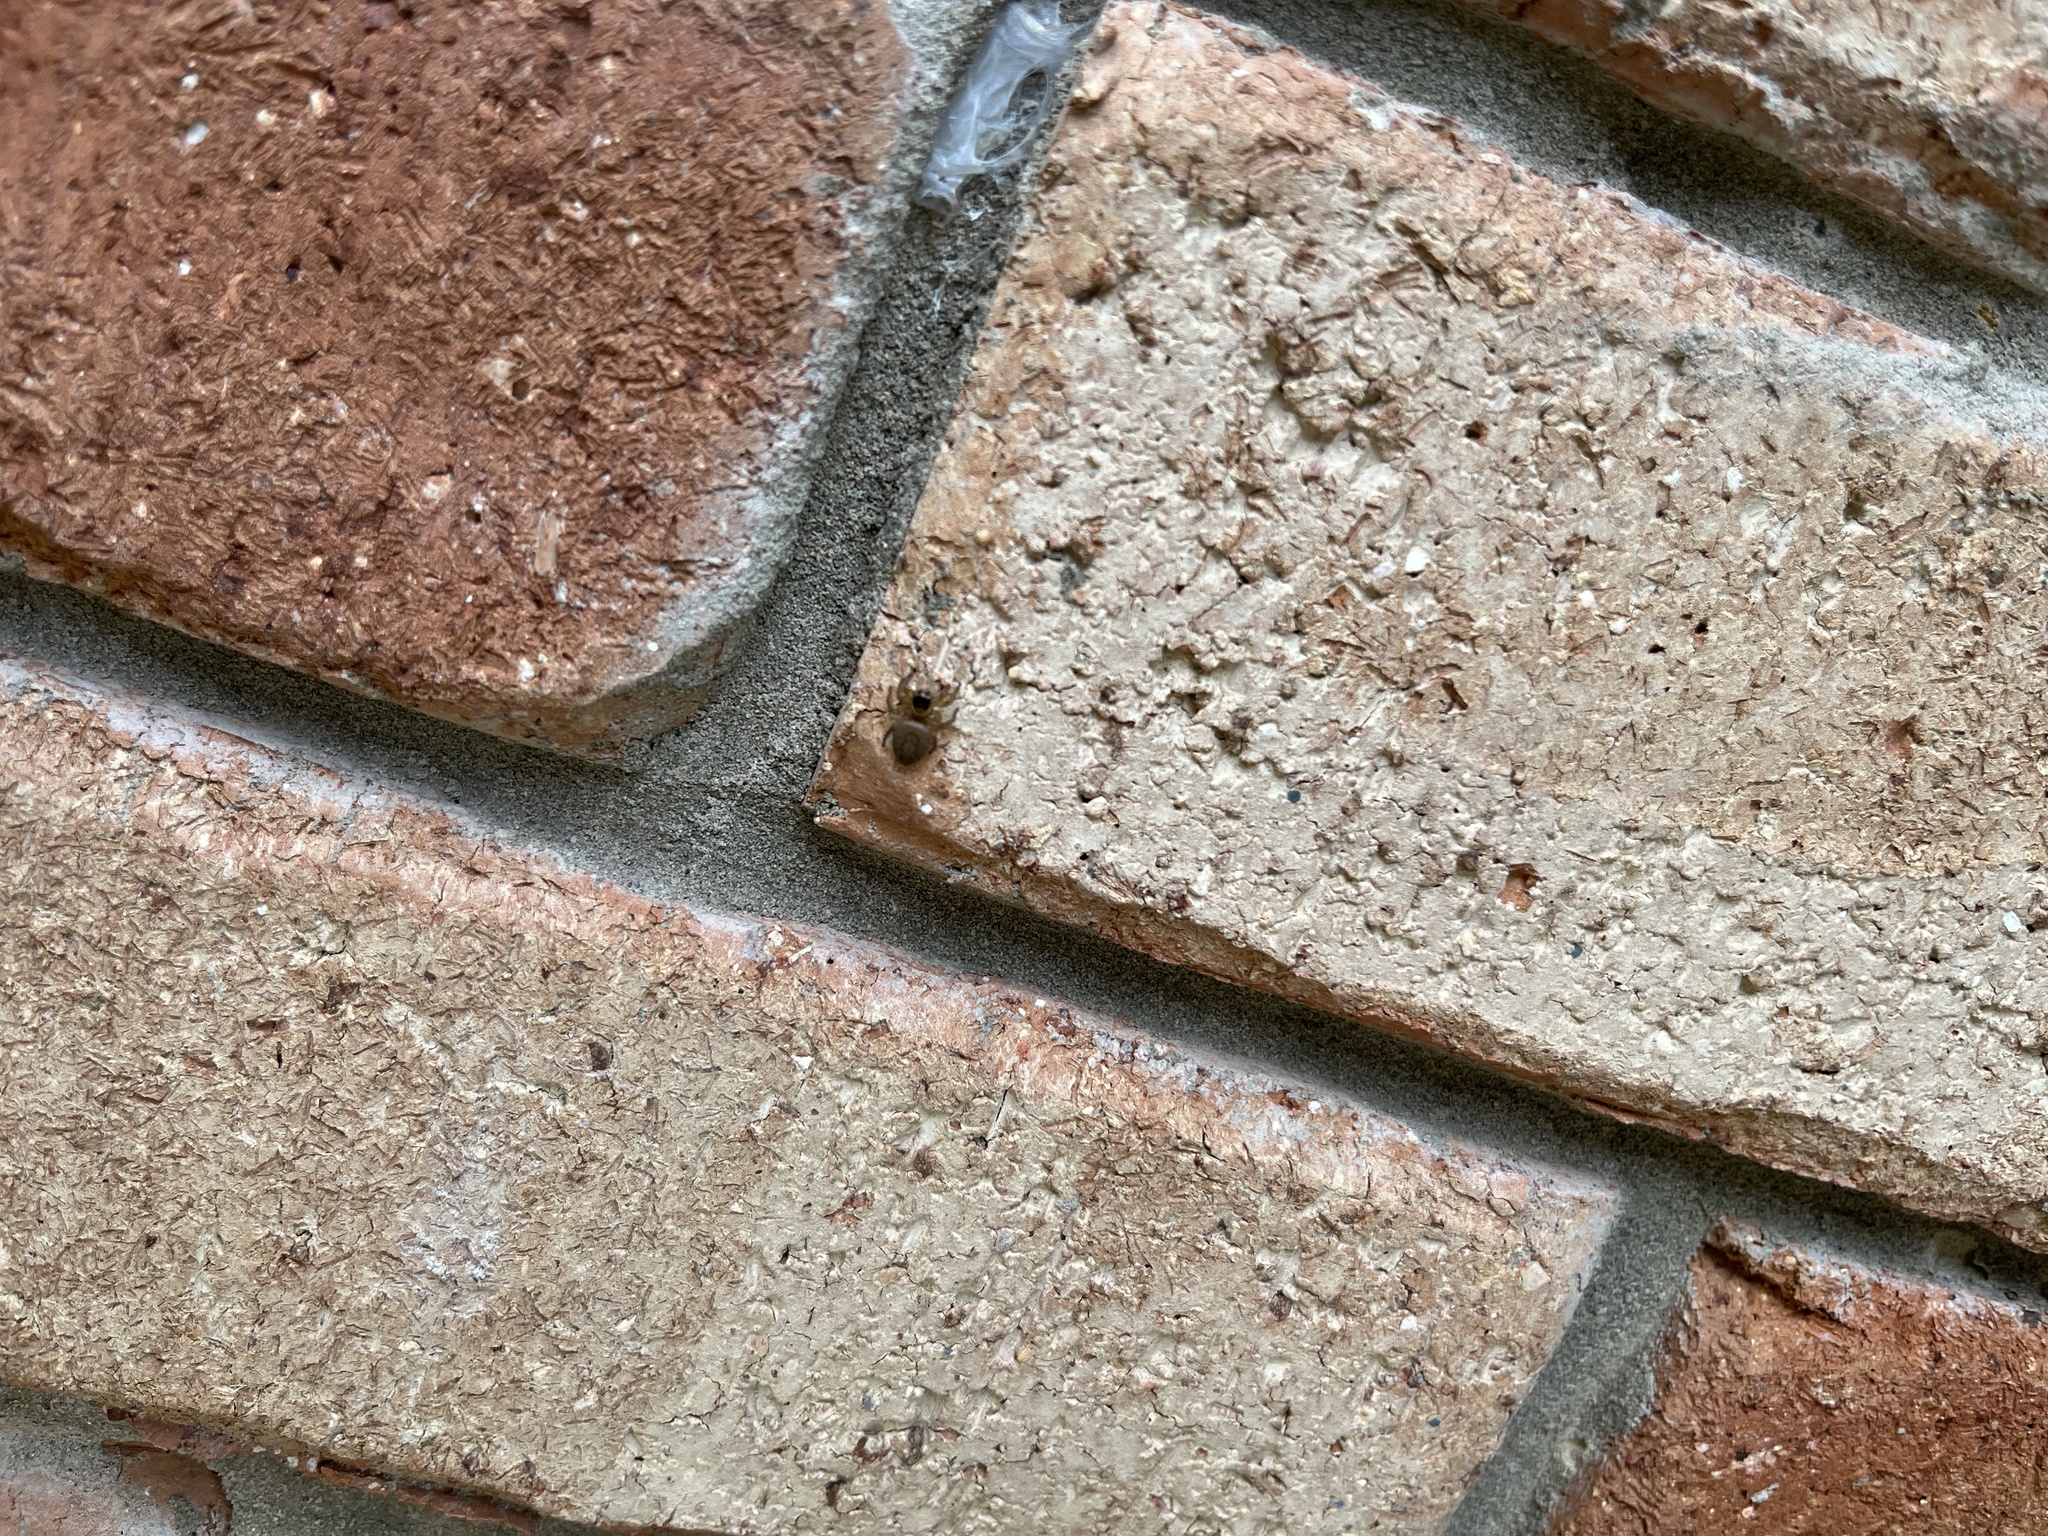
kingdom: Animalia
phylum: Arthropoda
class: Arachnida
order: Araneae
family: Salticidae
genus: Maratus
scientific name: Maratus griseus
